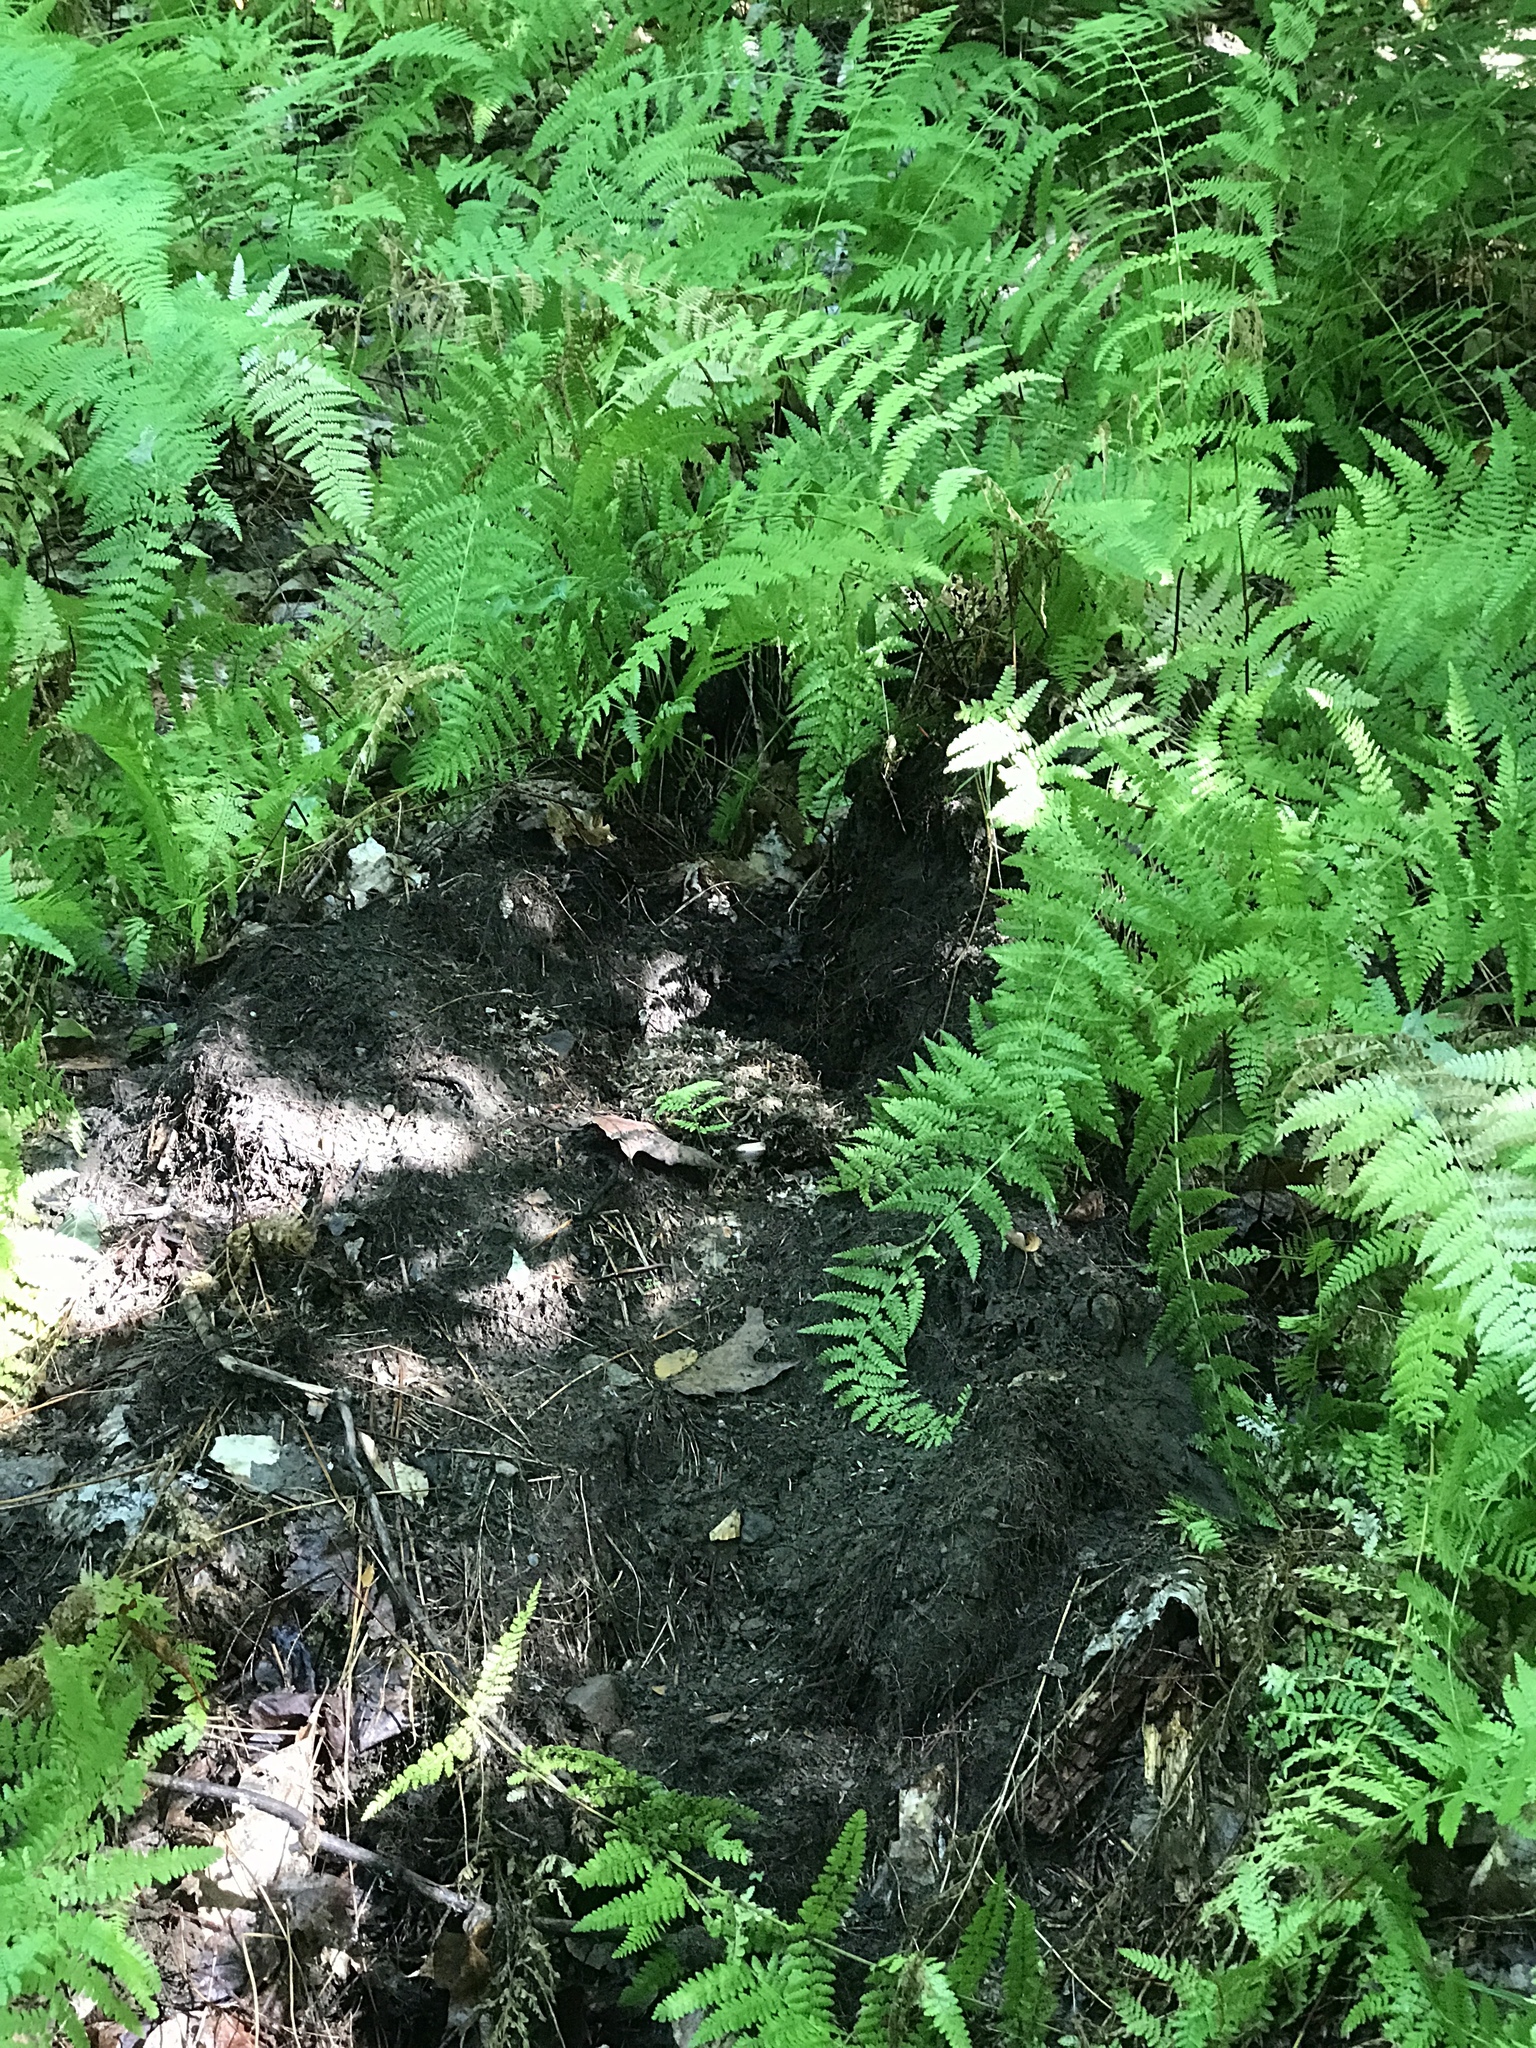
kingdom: Animalia
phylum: Arthropoda
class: Insecta
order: Hymenoptera
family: Apidae
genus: Bombus
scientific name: Bombus impatiens
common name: Common eastern bumble bee
